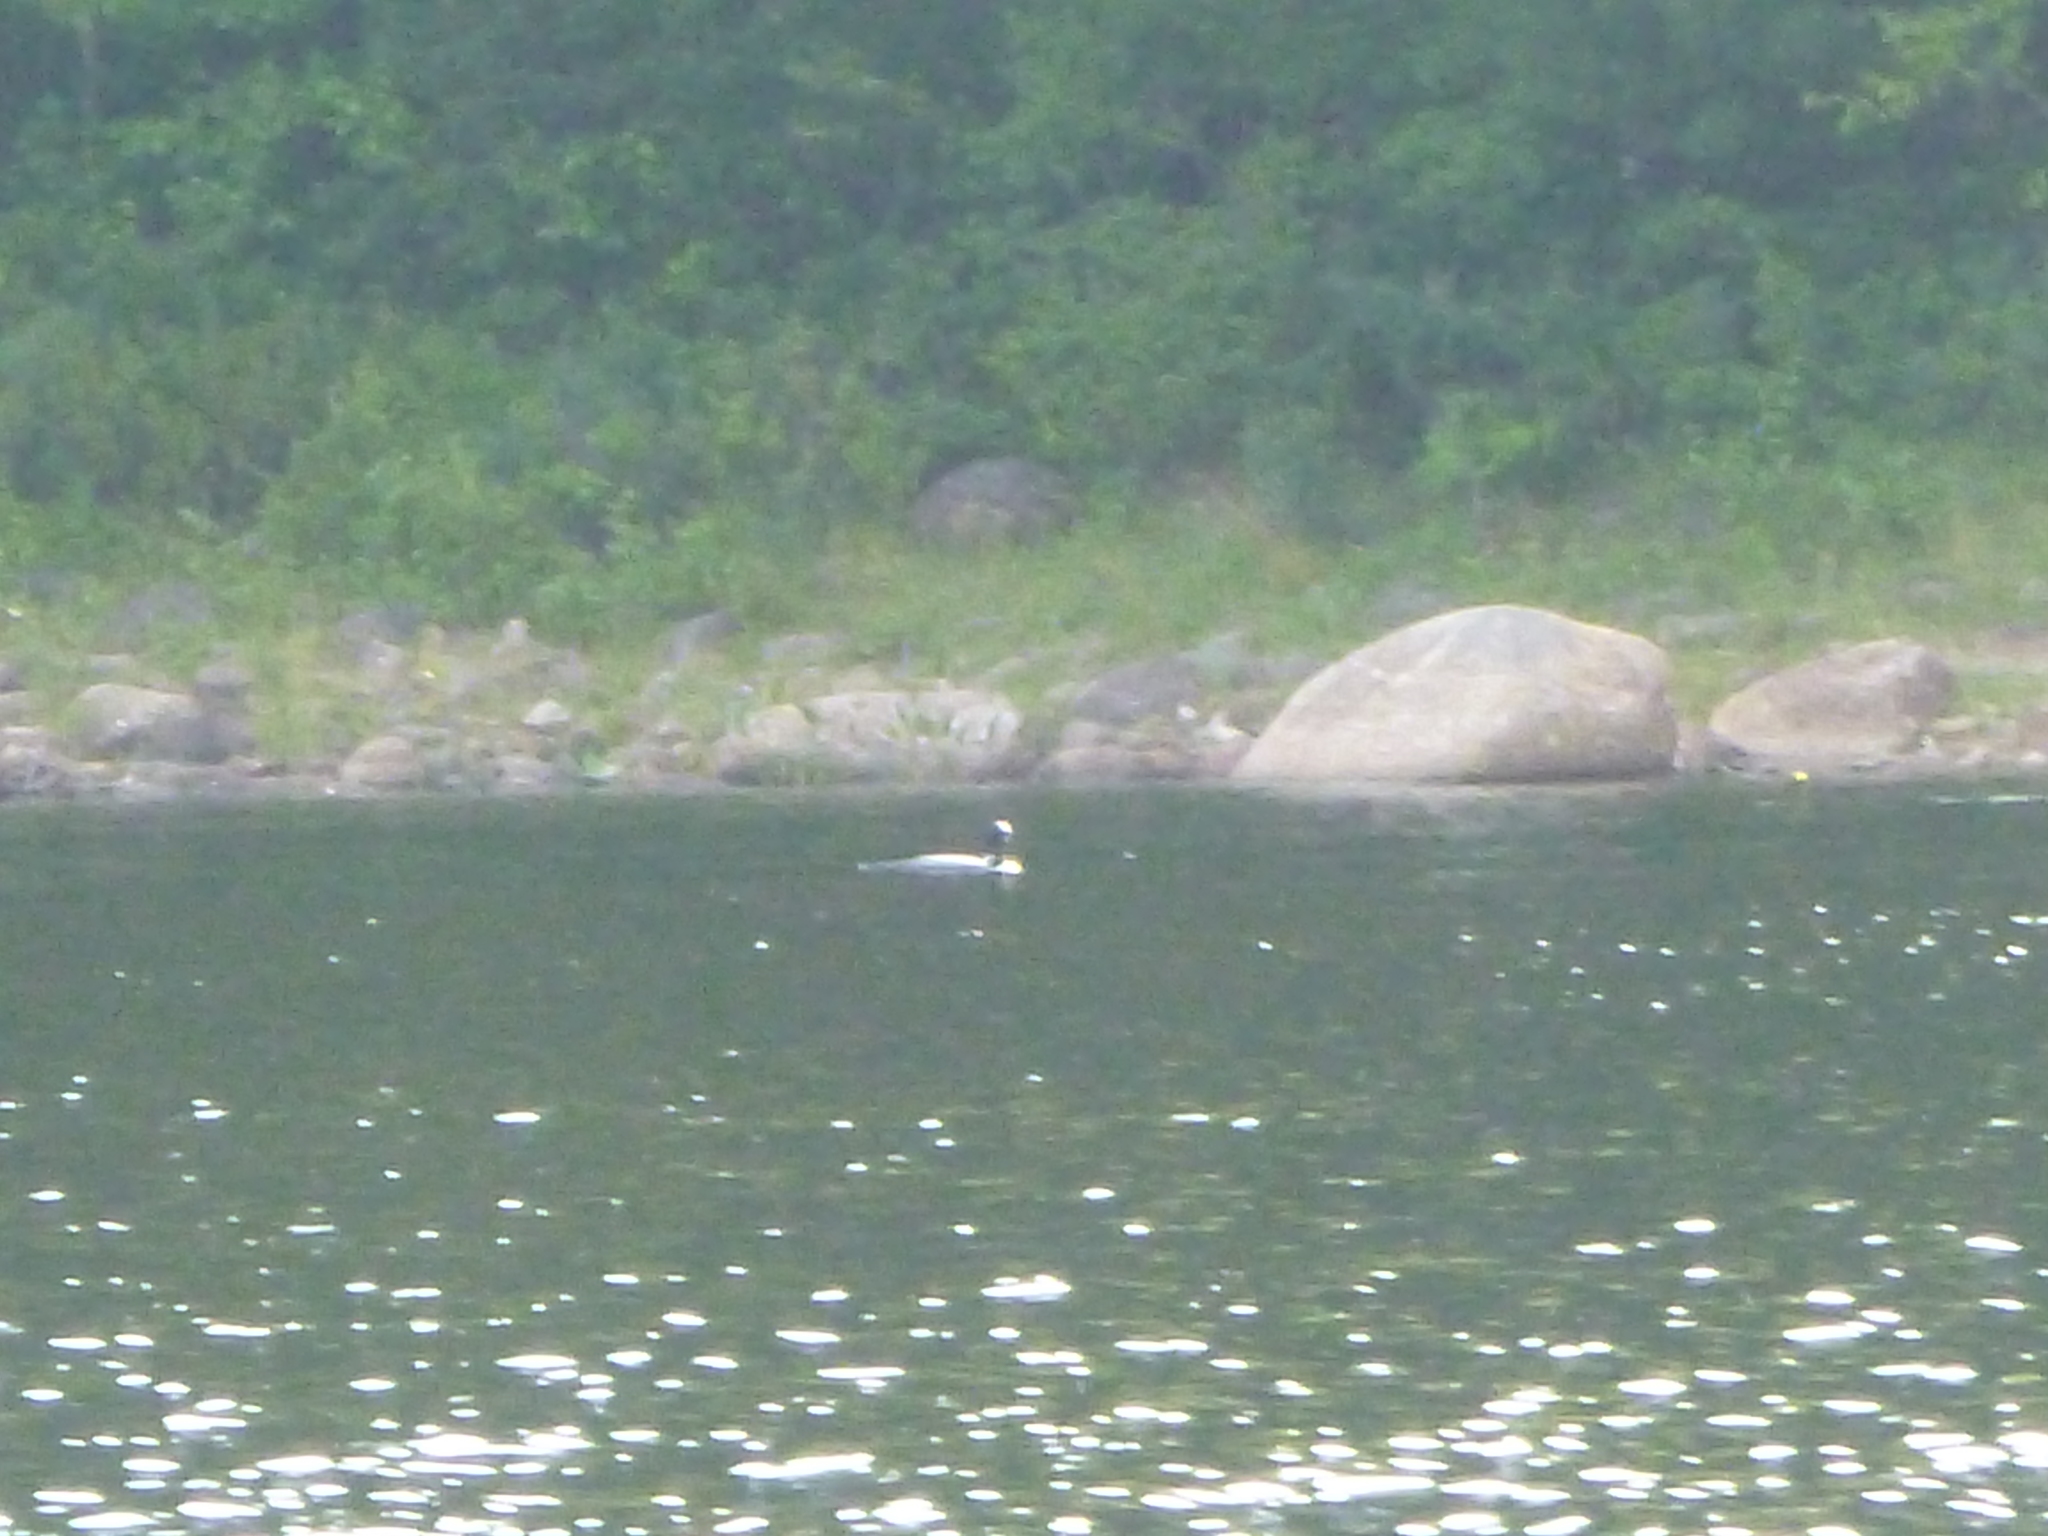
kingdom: Animalia
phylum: Chordata
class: Aves
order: Gaviiformes
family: Gaviidae
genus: Gavia
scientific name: Gavia immer
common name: Common loon
